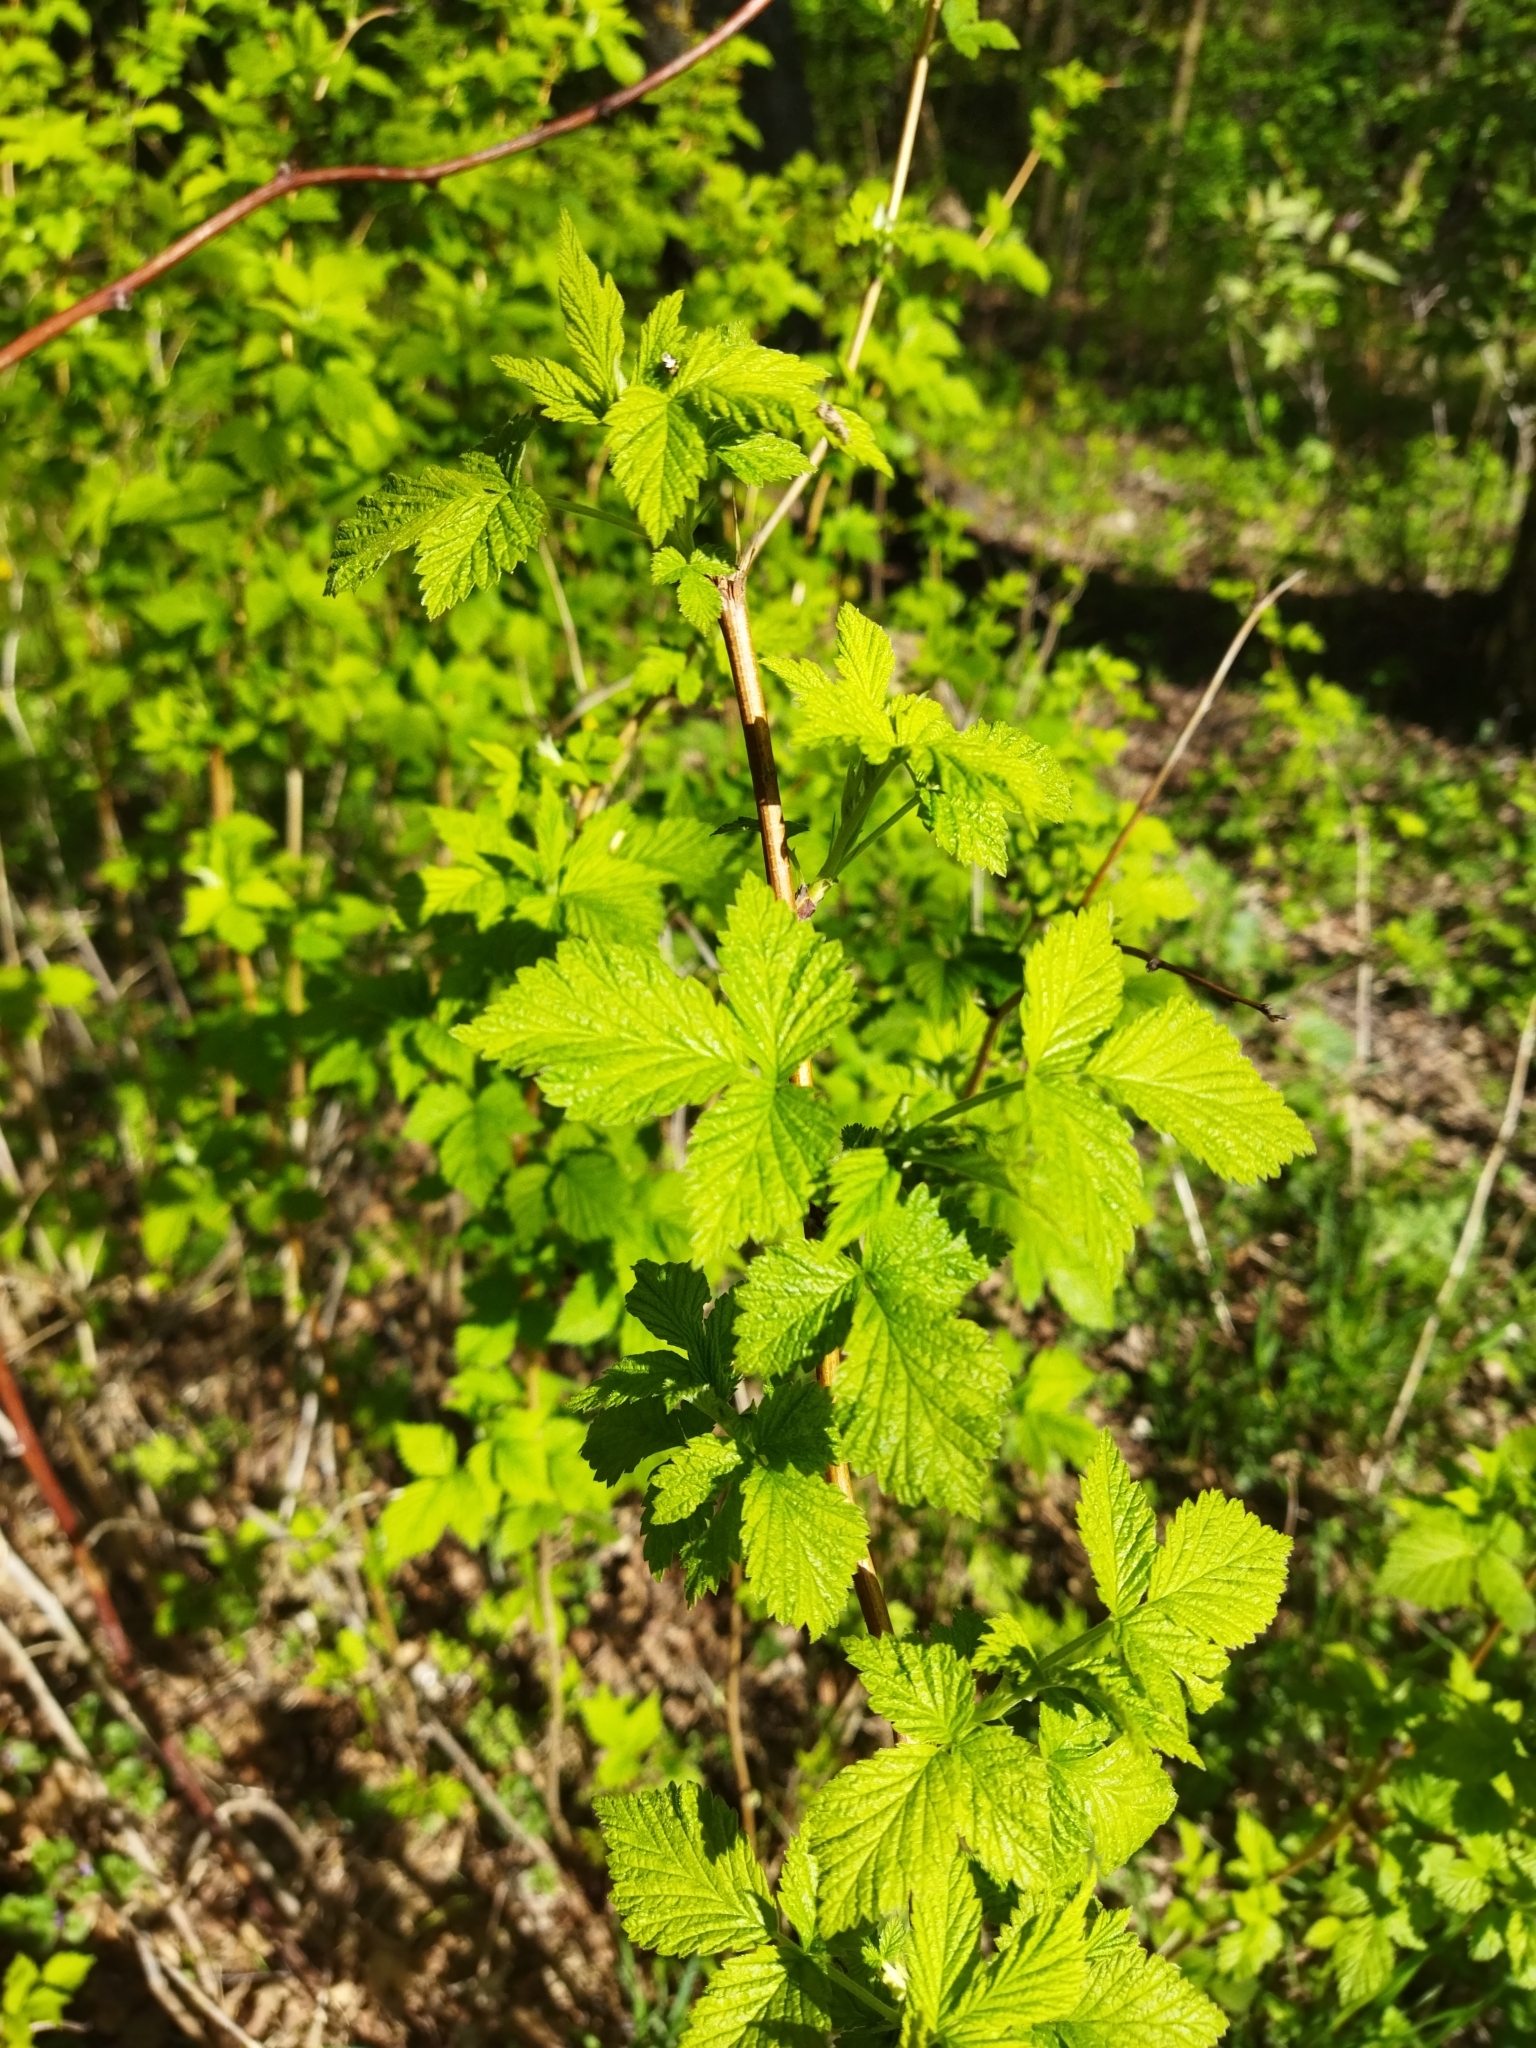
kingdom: Plantae
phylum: Tracheophyta
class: Magnoliopsida
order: Rosales
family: Rosaceae
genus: Rubus
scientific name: Rubus idaeus
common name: Raspberry
